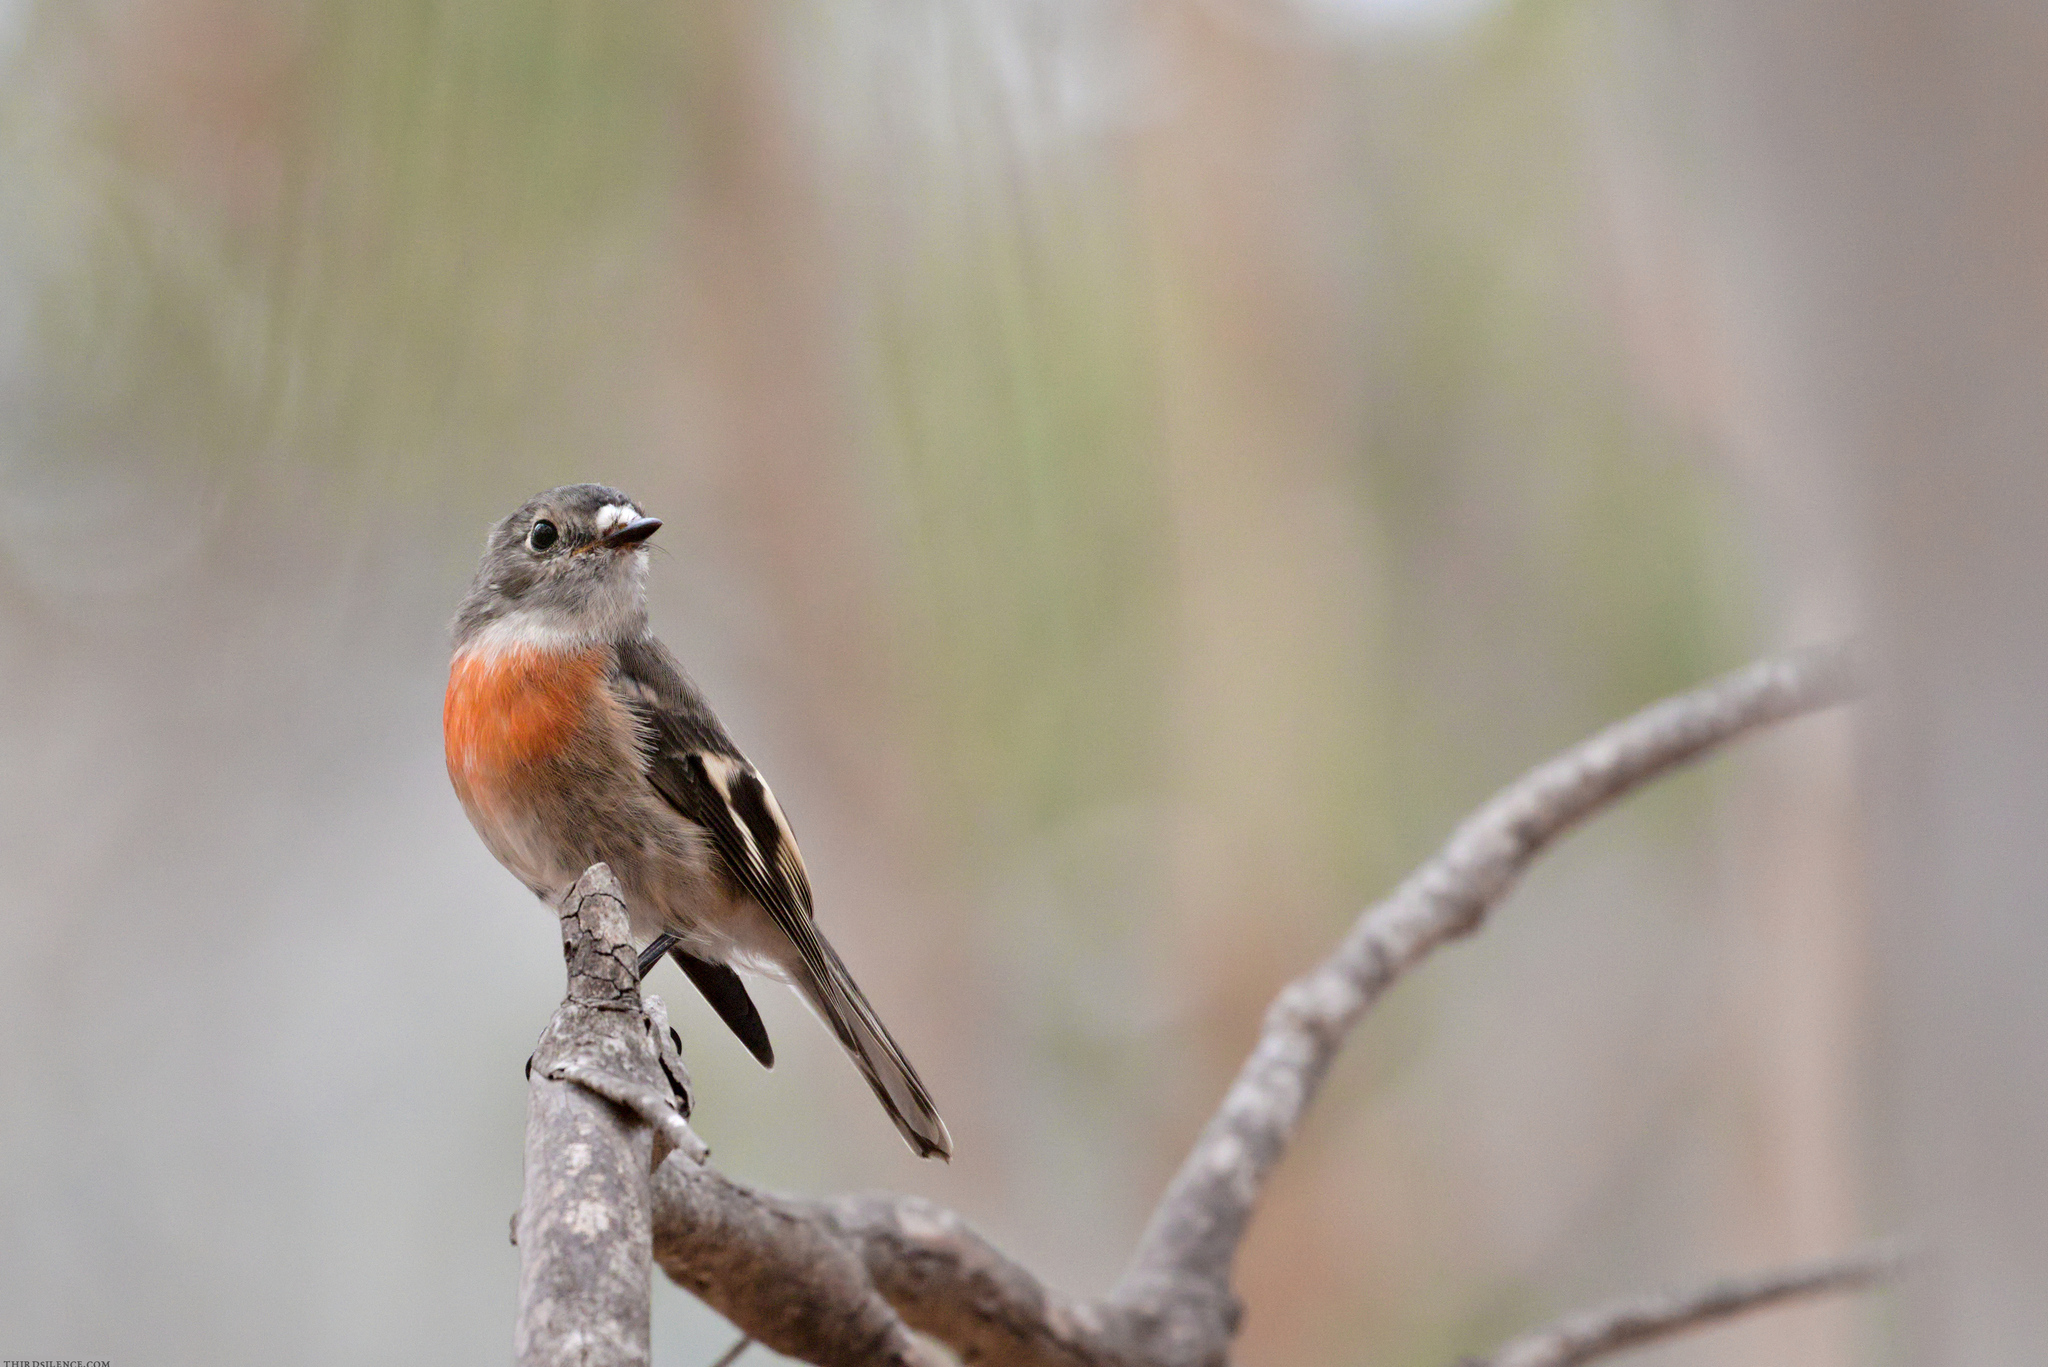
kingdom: Animalia
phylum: Chordata
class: Aves
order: Passeriformes
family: Petroicidae
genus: Petroica
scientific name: Petroica boodang
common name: Scarlet robin
